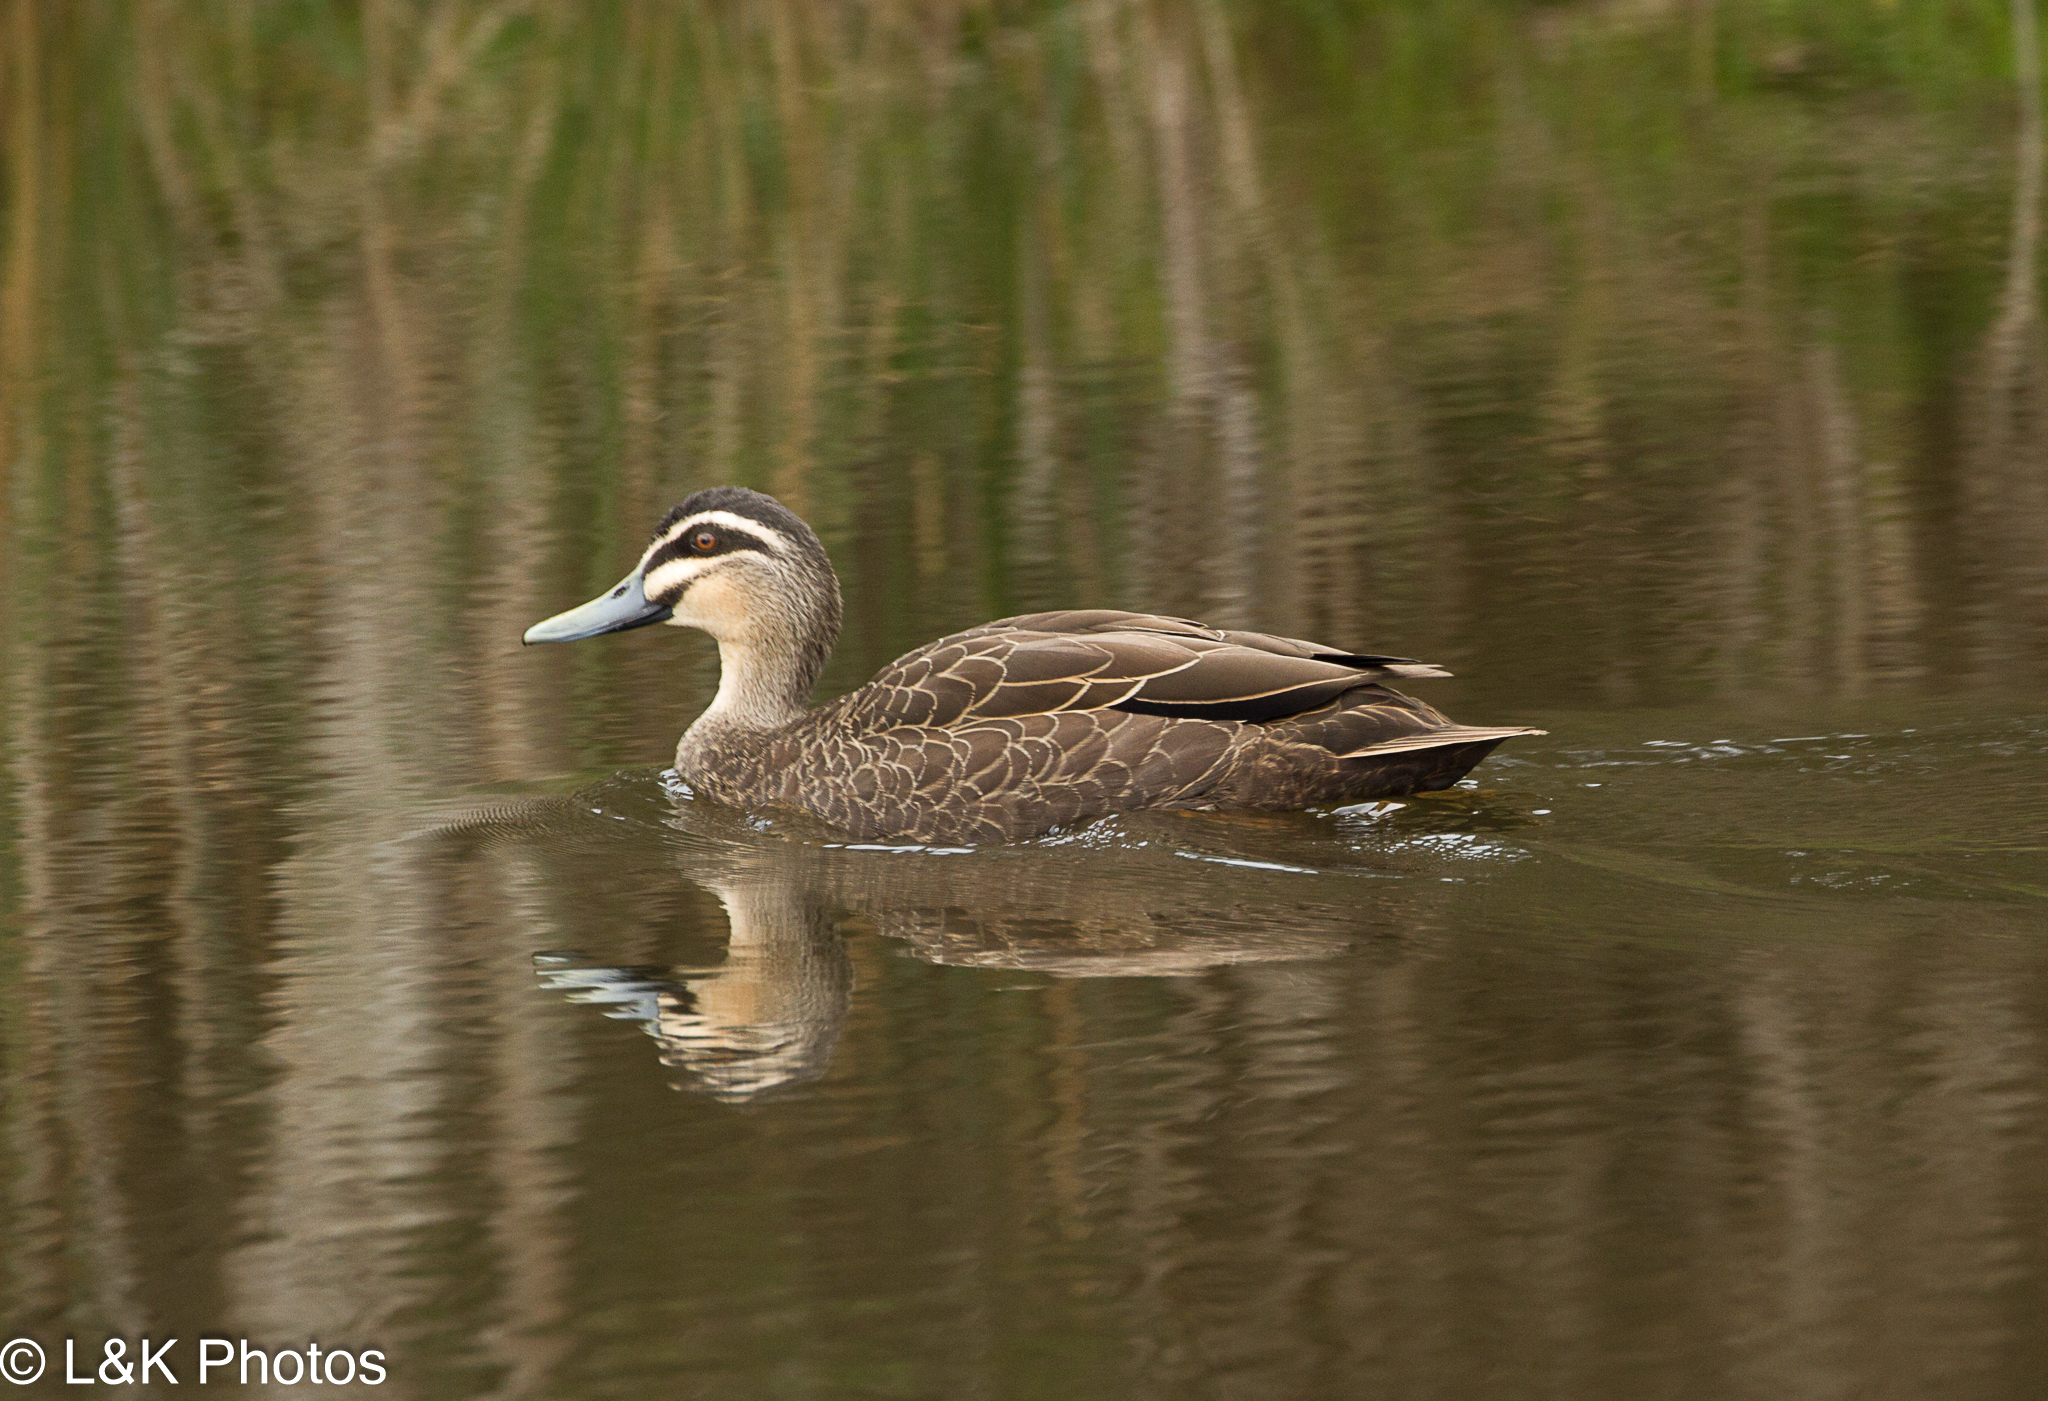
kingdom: Animalia
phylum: Chordata
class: Aves
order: Anseriformes
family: Anatidae
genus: Anas
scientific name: Anas superciliosa
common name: Pacific black duck
